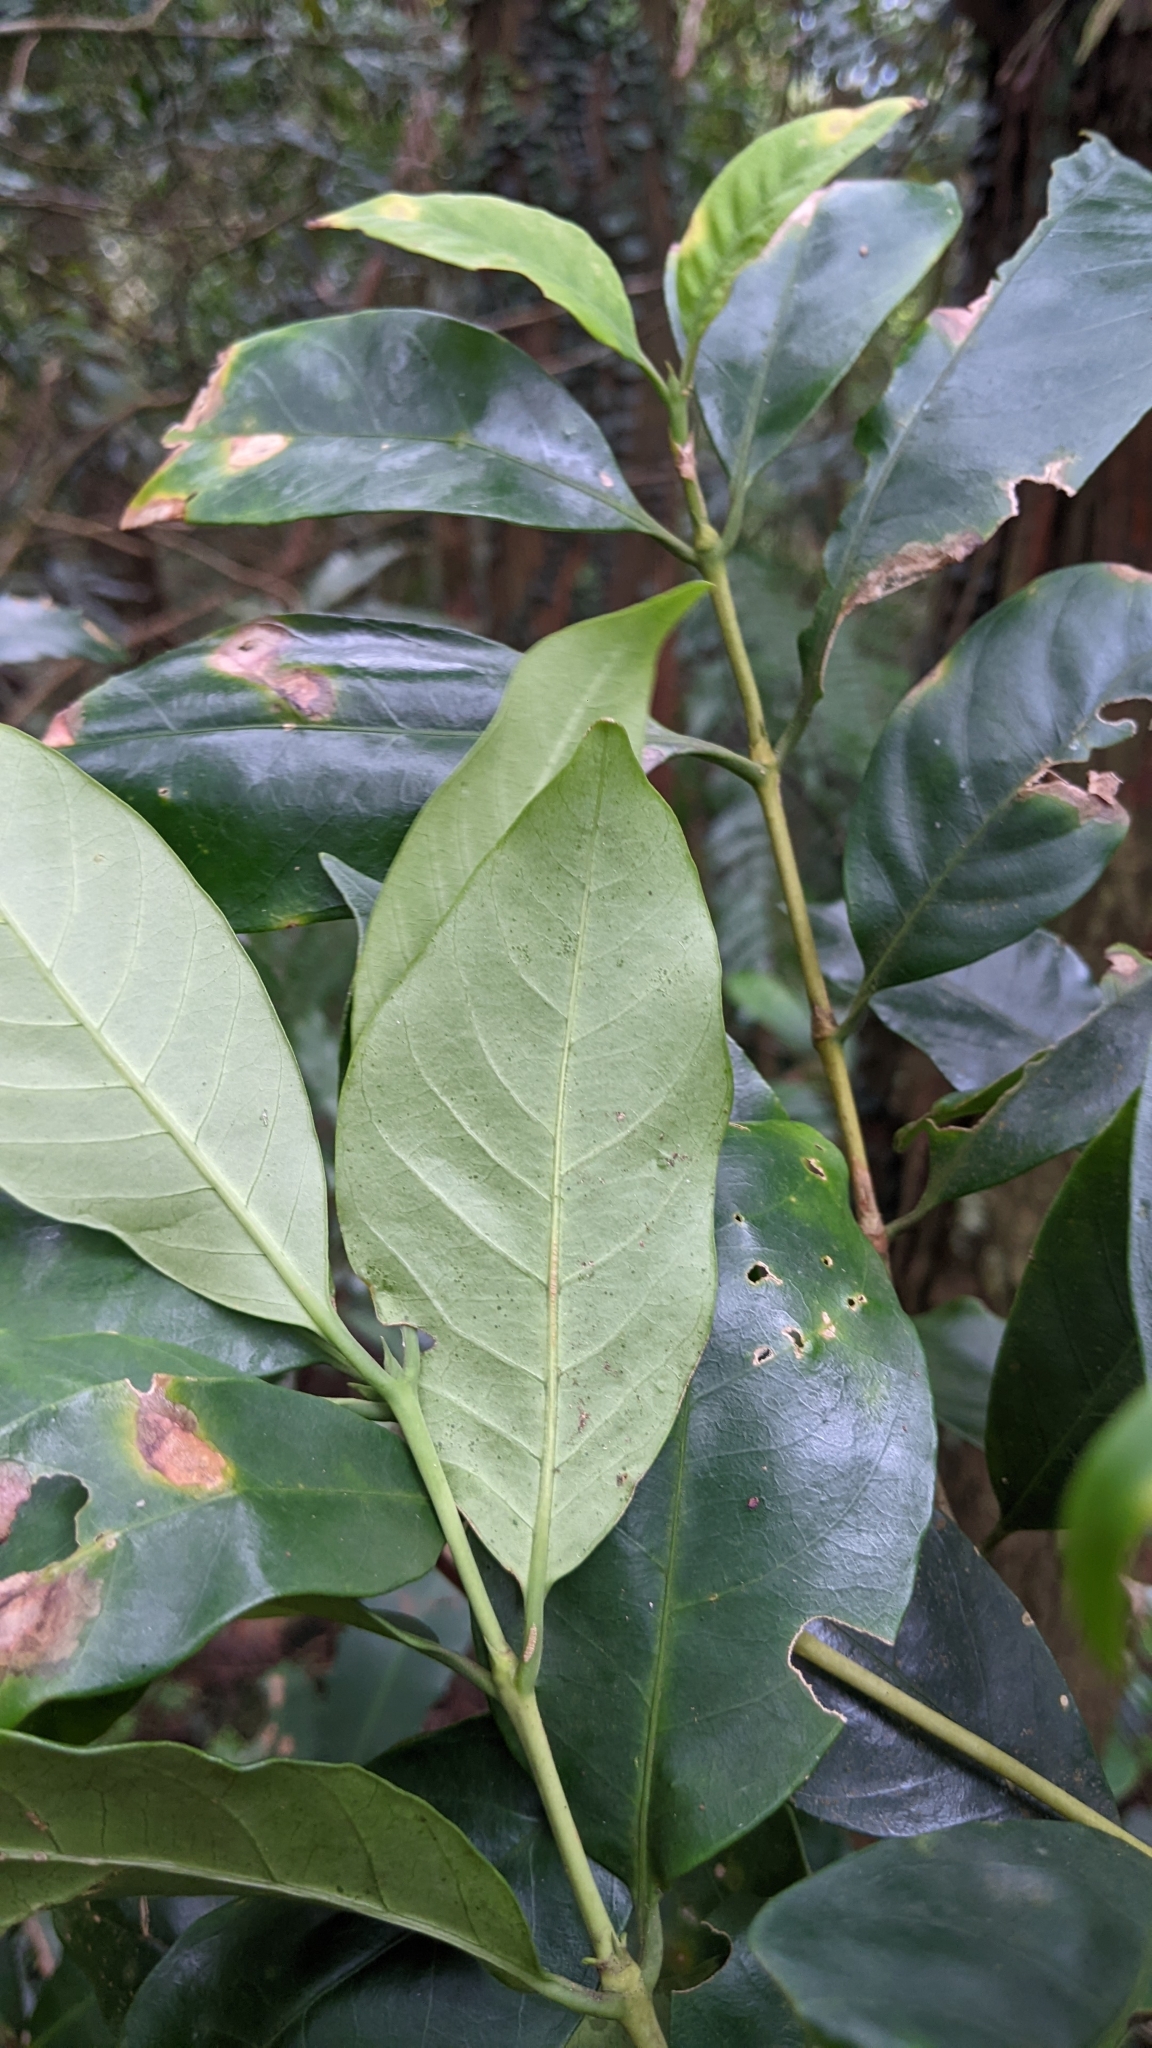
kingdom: Plantae
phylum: Tracheophyta
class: Magnoliopsida
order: Gentianales
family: Rubiaceae
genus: Diplospora
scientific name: Diplospora dubia
